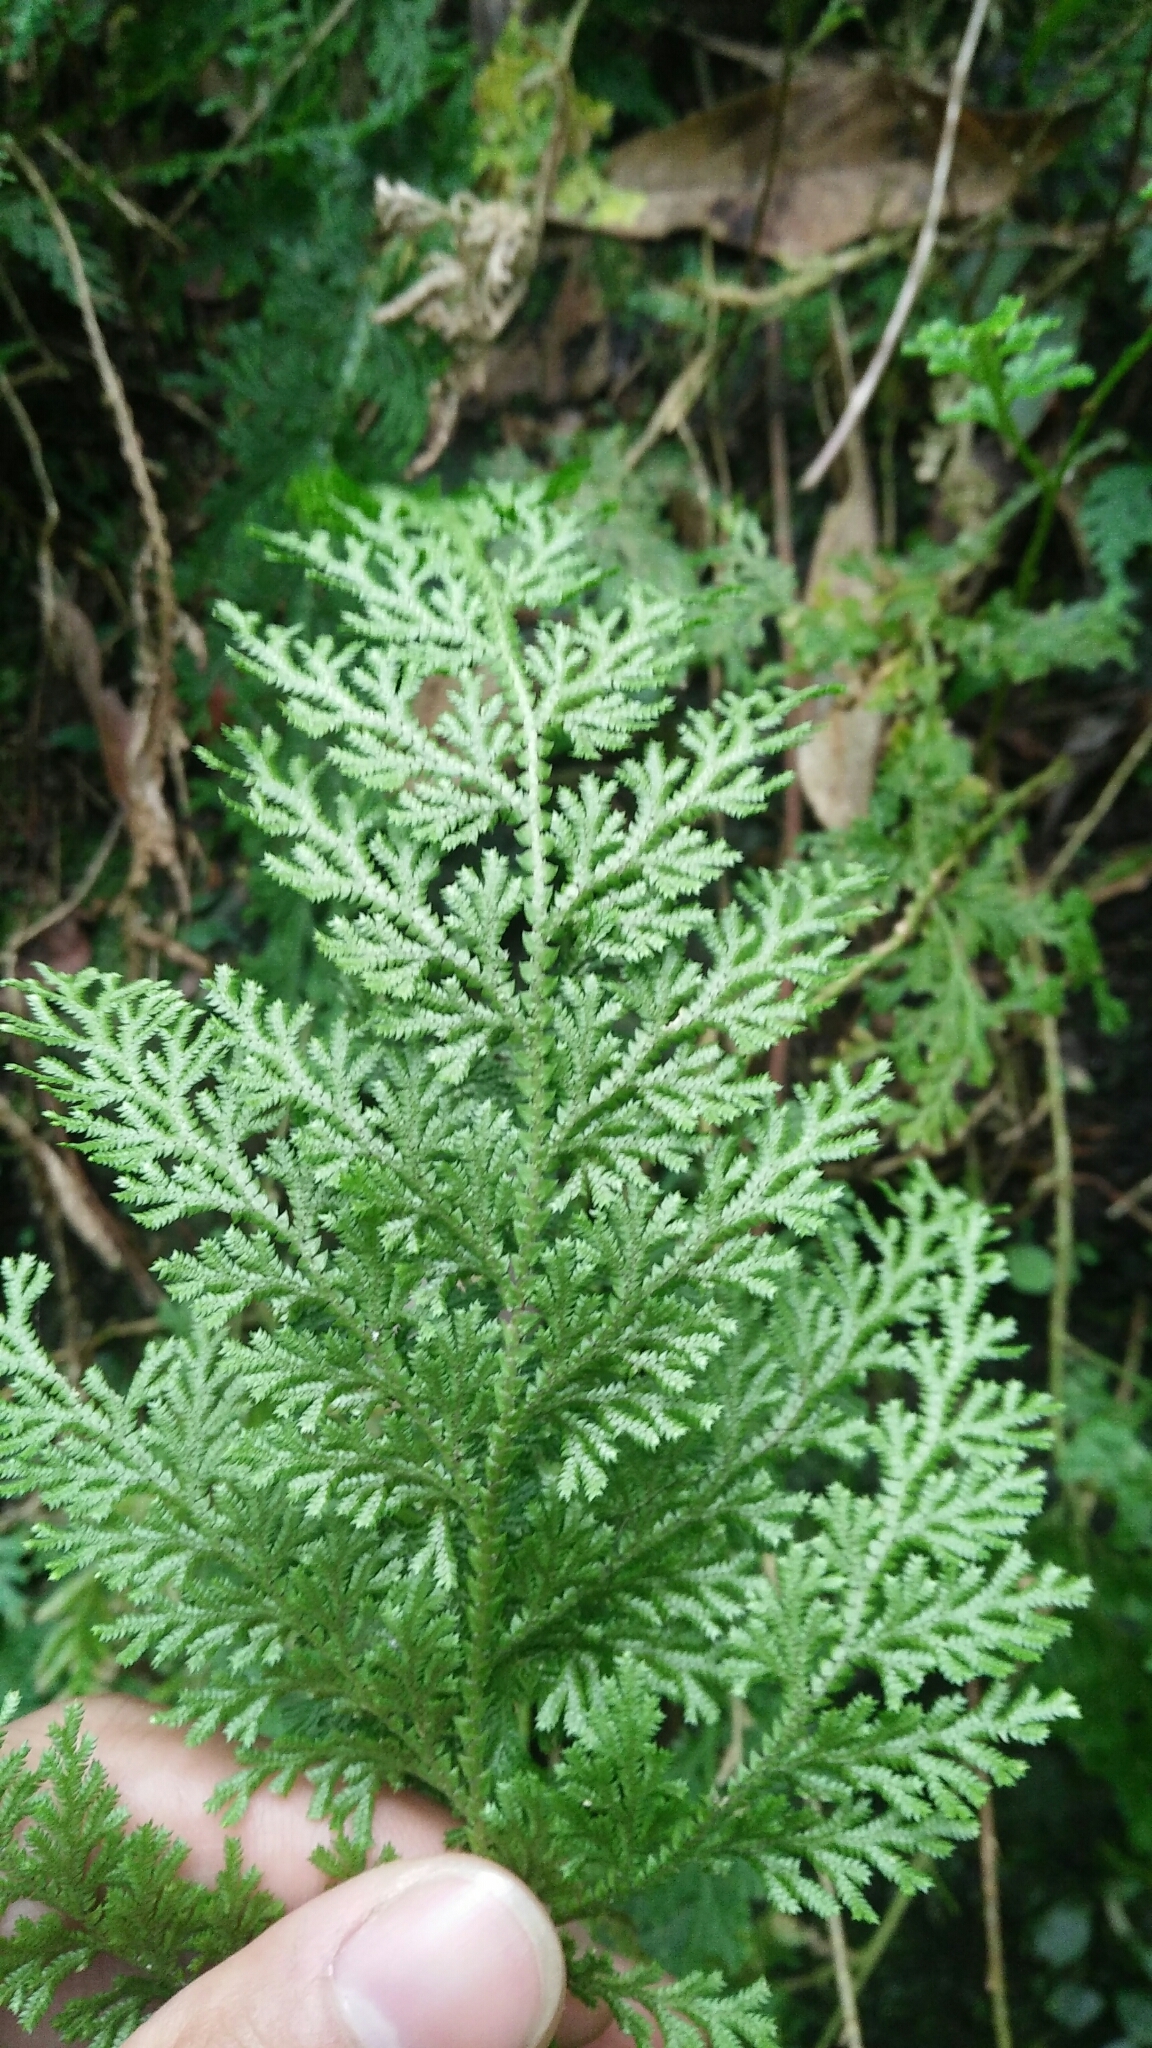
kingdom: Plantae
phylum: Tracheophyta
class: Lycopodiopsida
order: Selaginellales
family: Selaginellaceae
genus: Selaginella
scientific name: Selaginella moellendorffii
